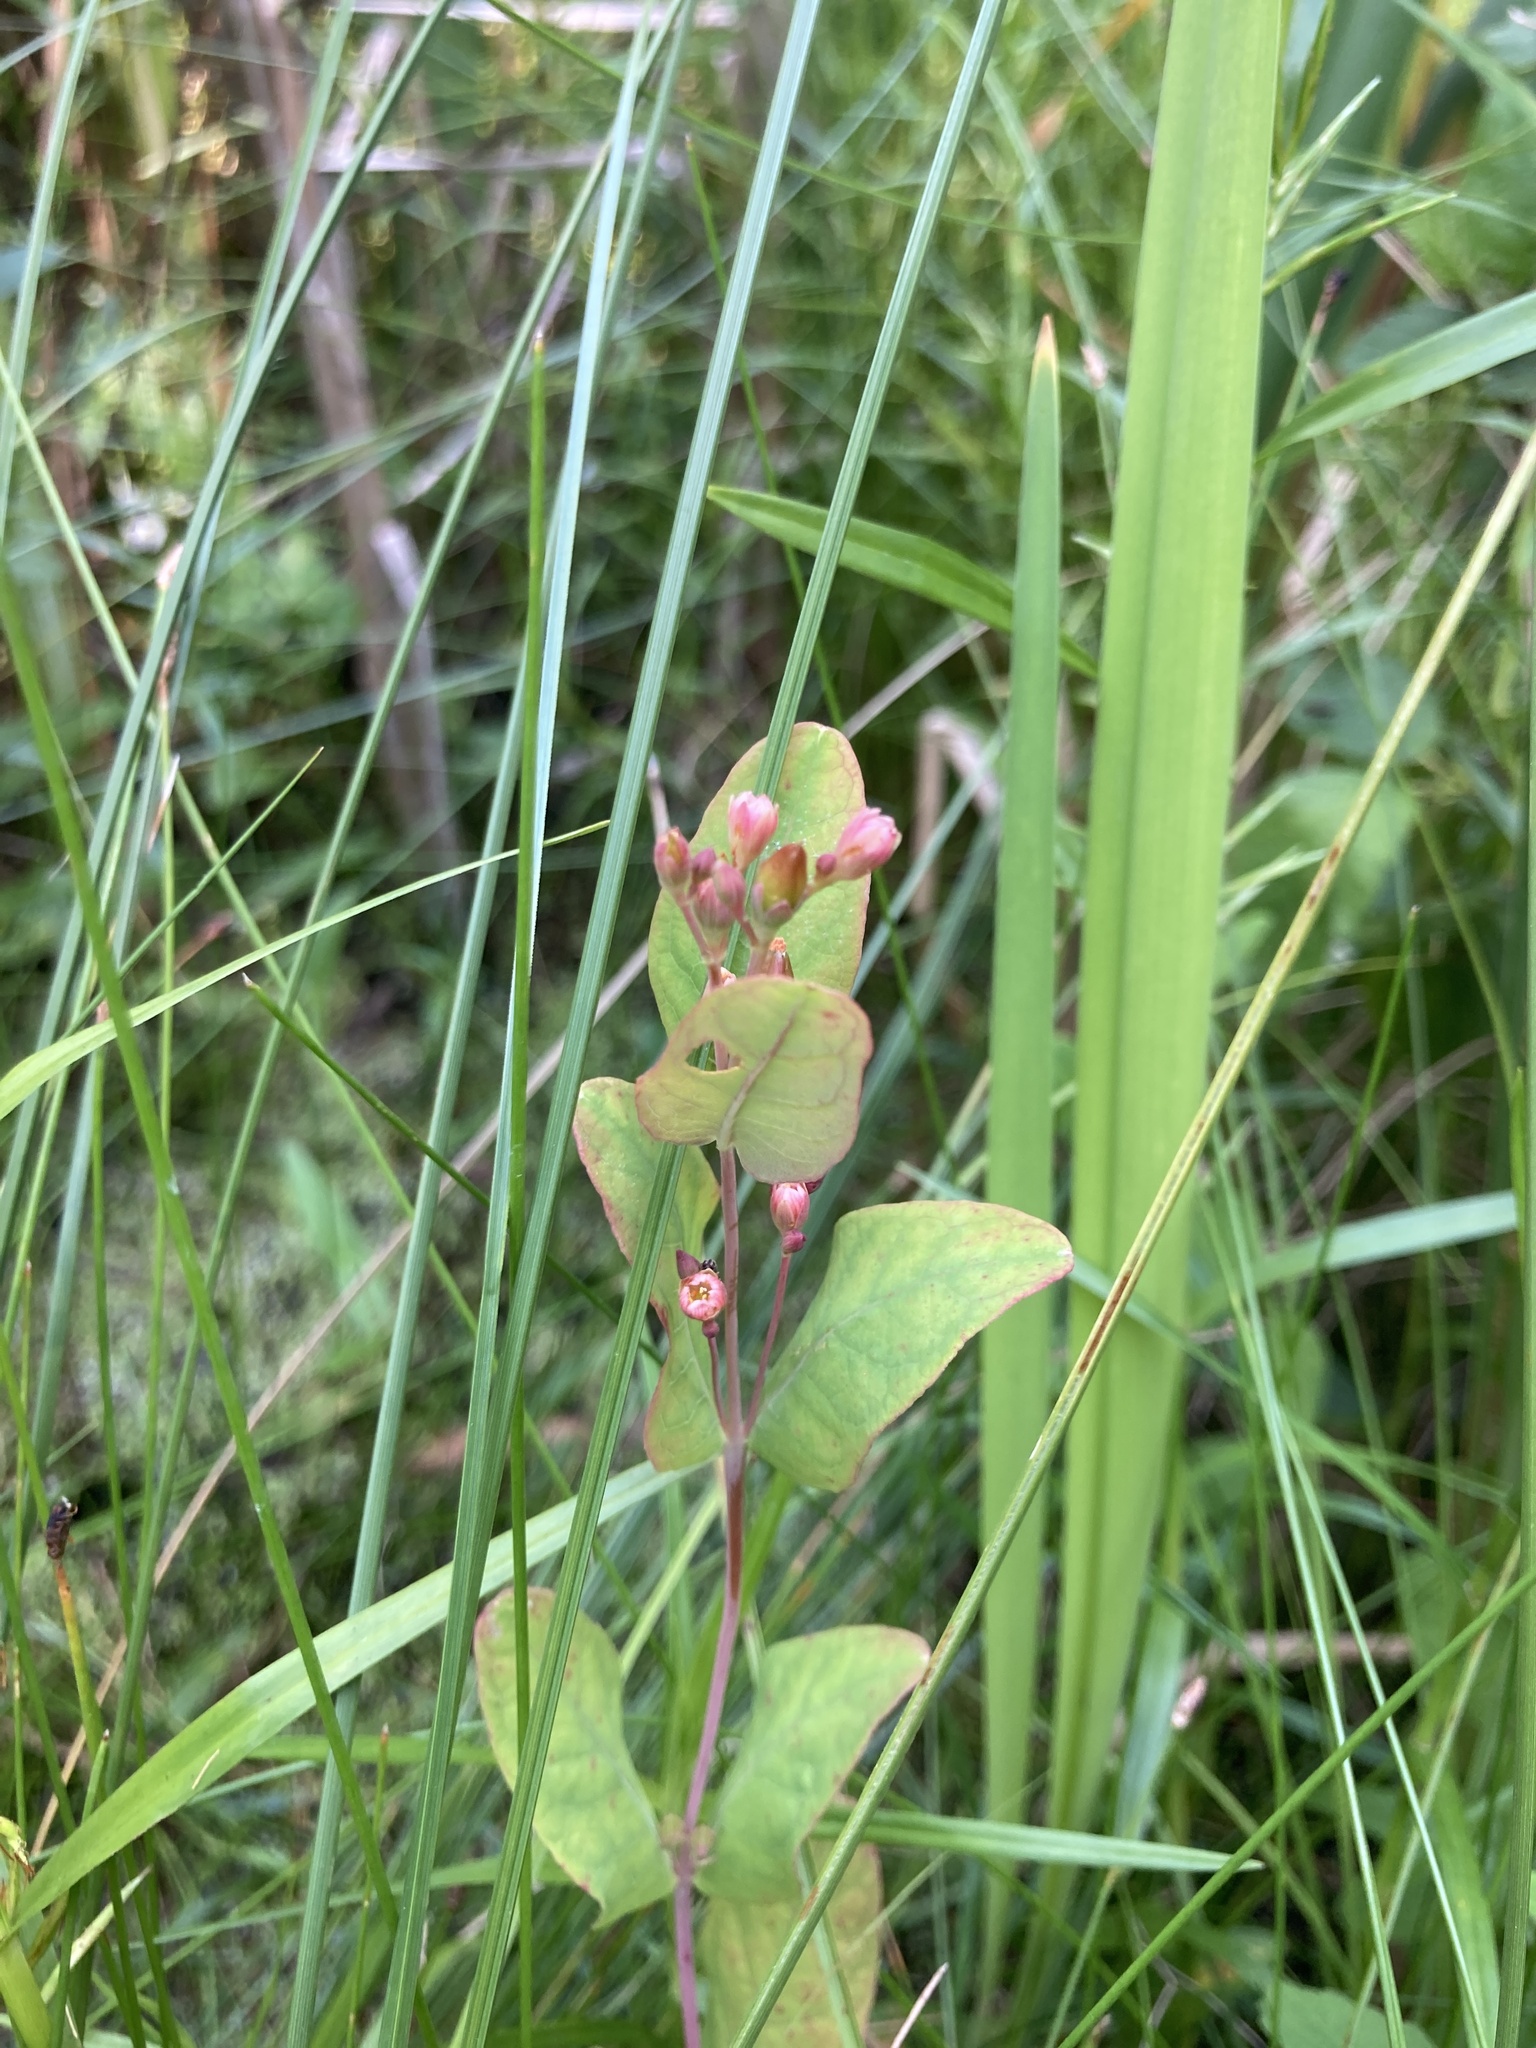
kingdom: Plantae
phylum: Tracheophyta
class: Magnoliopsida
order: Malpighiales
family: Hypericaceae
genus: Triadenum
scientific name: Triadenum fraseri
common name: Fraser's marsh st. johnswort
